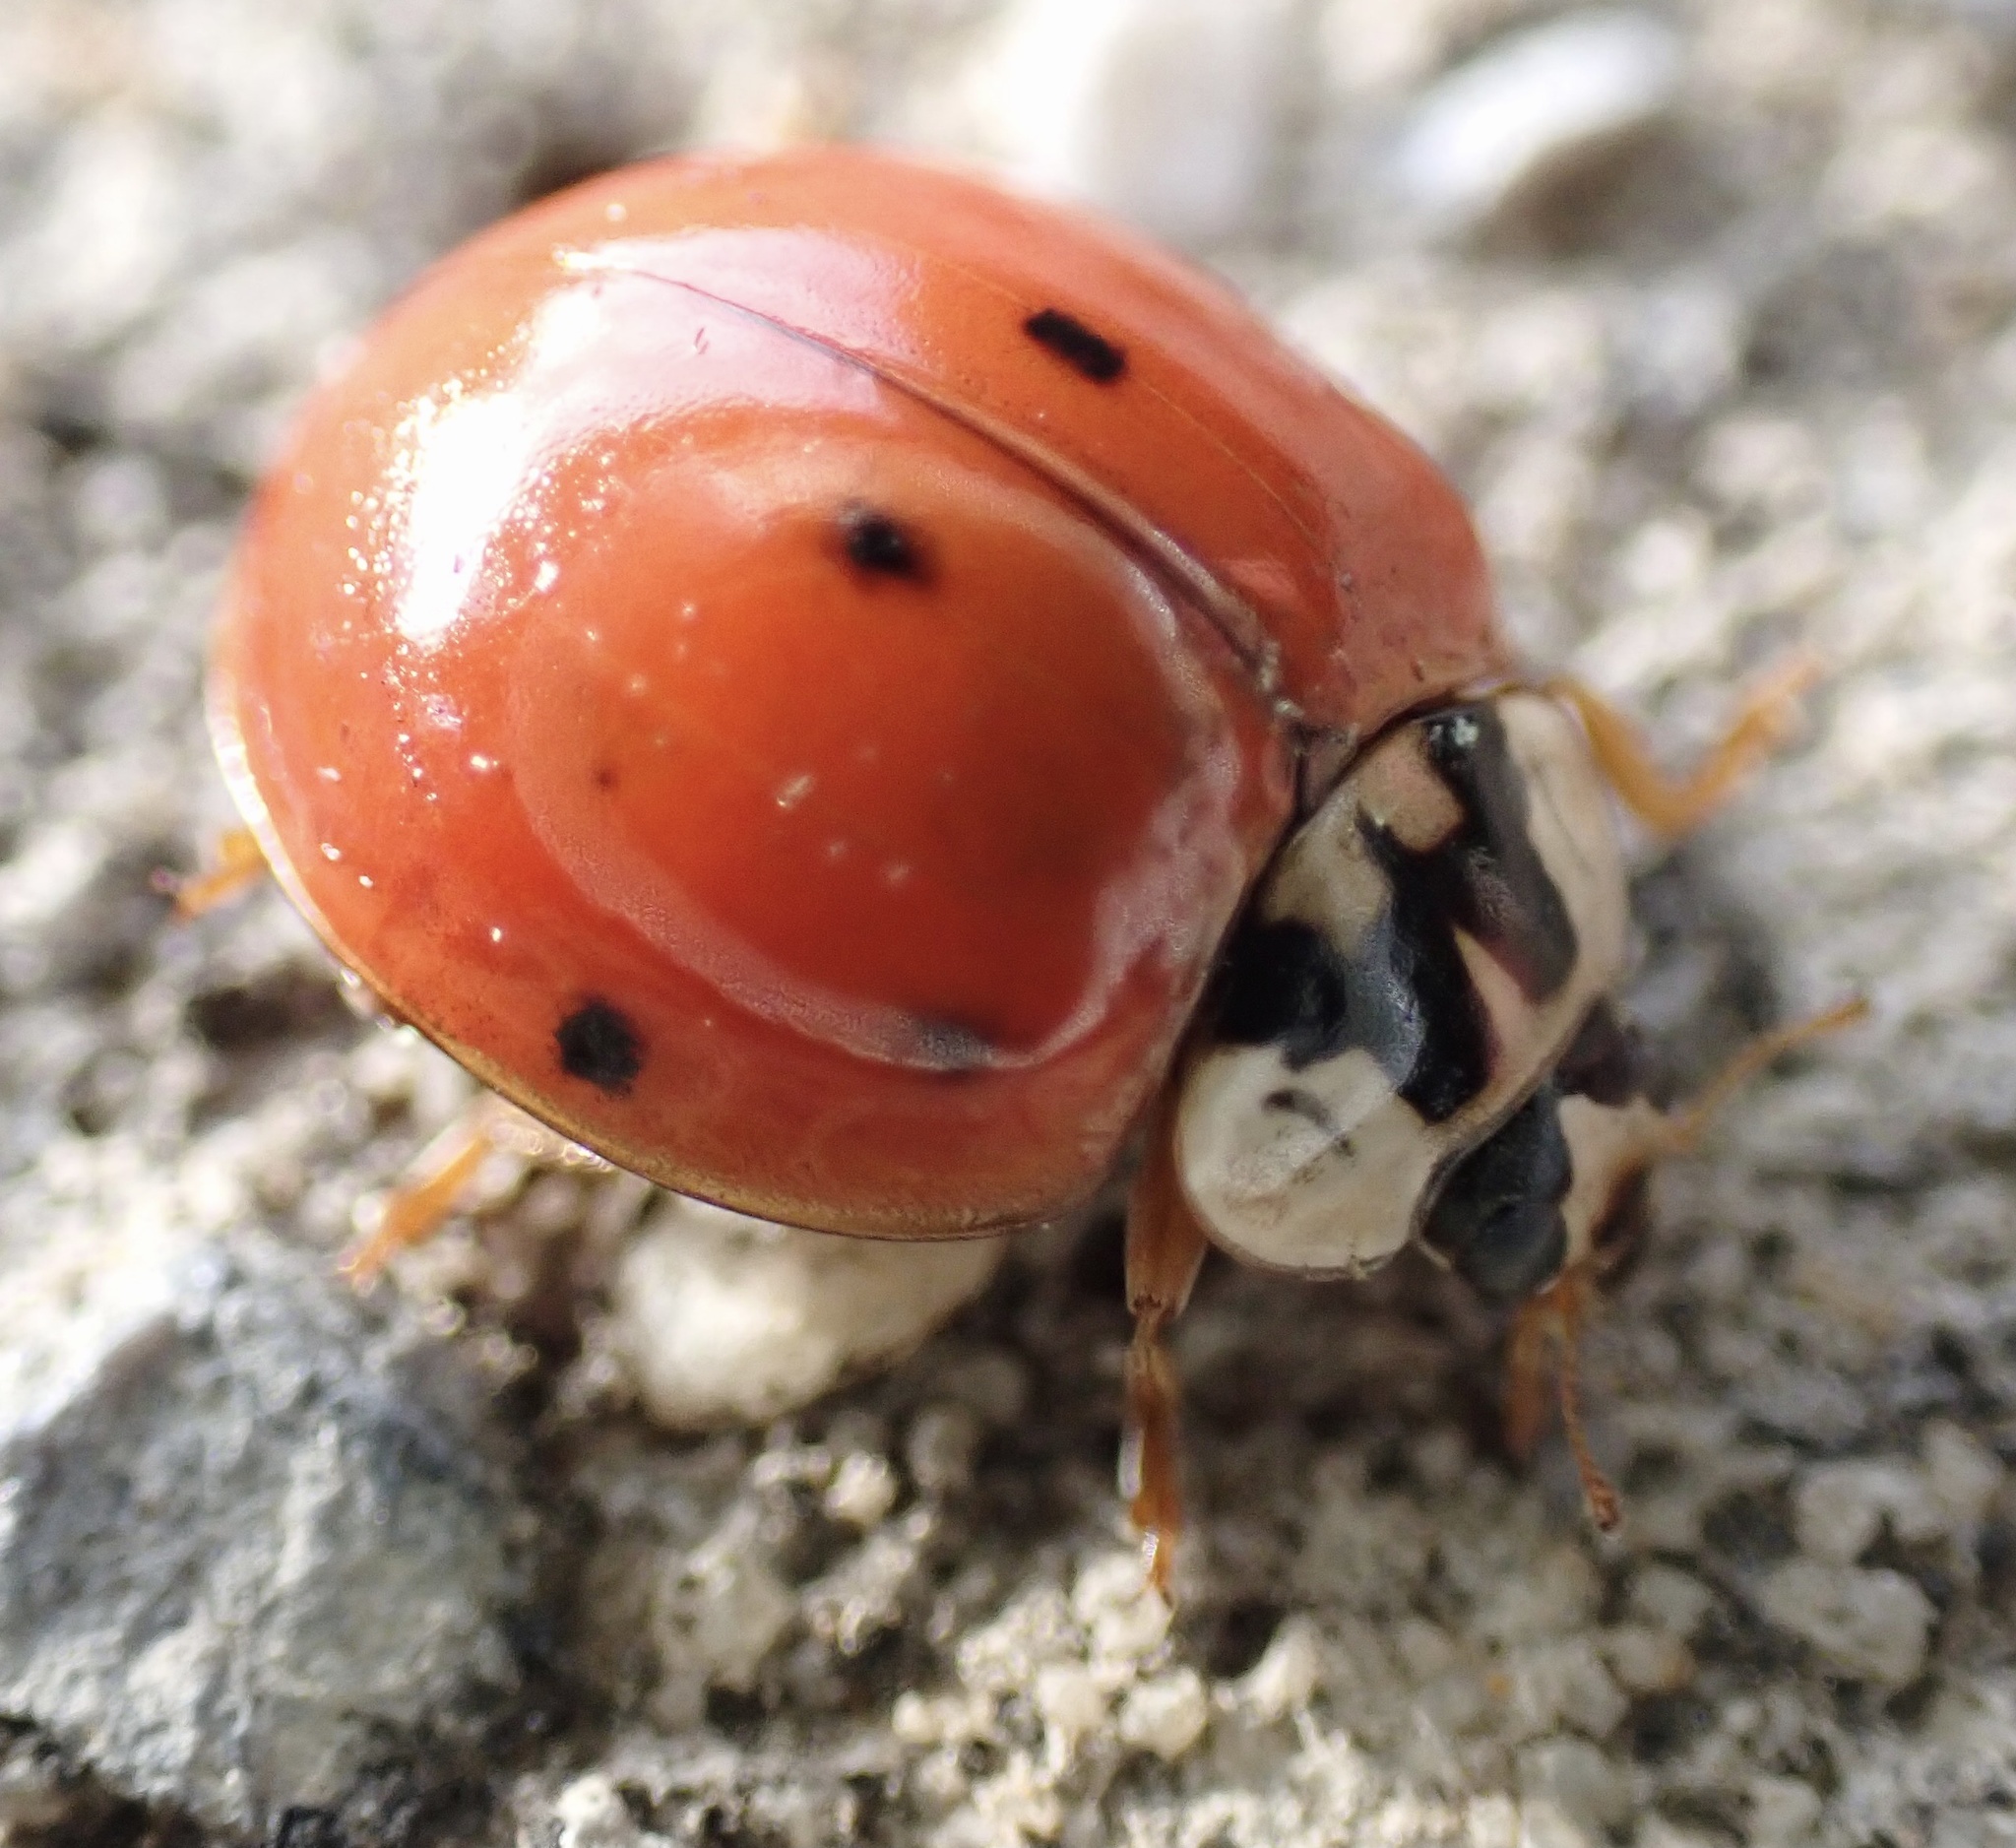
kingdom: Animalia
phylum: Arthropoda
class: Insecta
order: Coleoptera
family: Coccinellidae
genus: Harmonia
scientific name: Harmonia axyridis
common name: Harlequin ladybird
